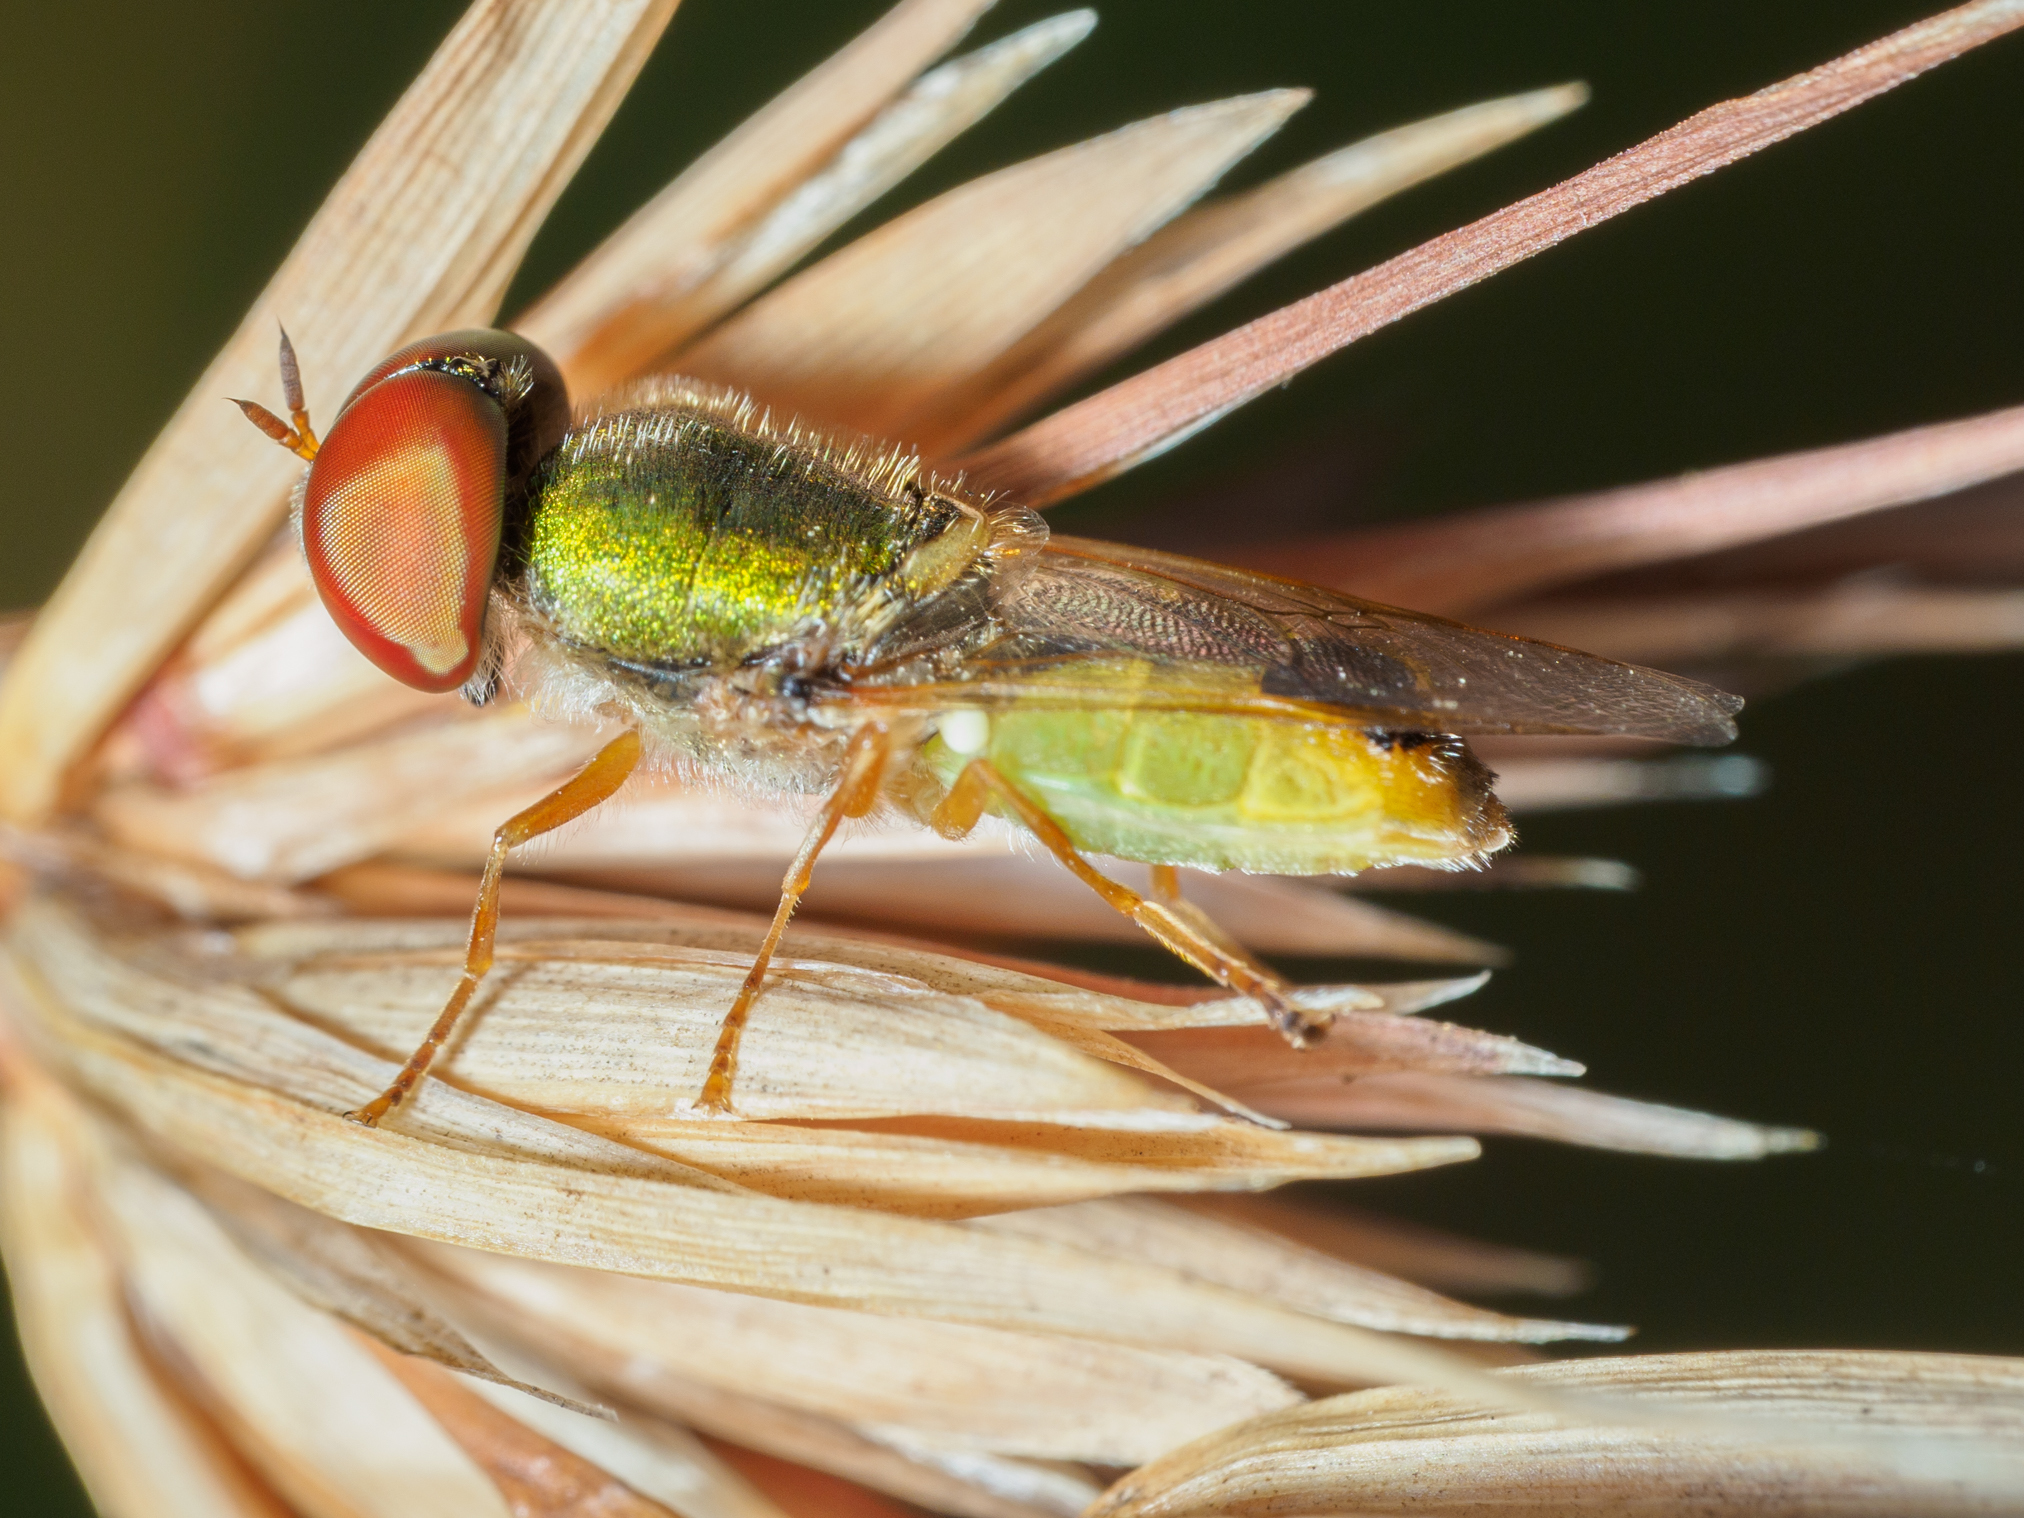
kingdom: Animalia
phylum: Arthropoda
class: Insecta
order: Diptera
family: Stratiomyidae
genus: Odontomyia
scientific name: Odontomyia decipiens
